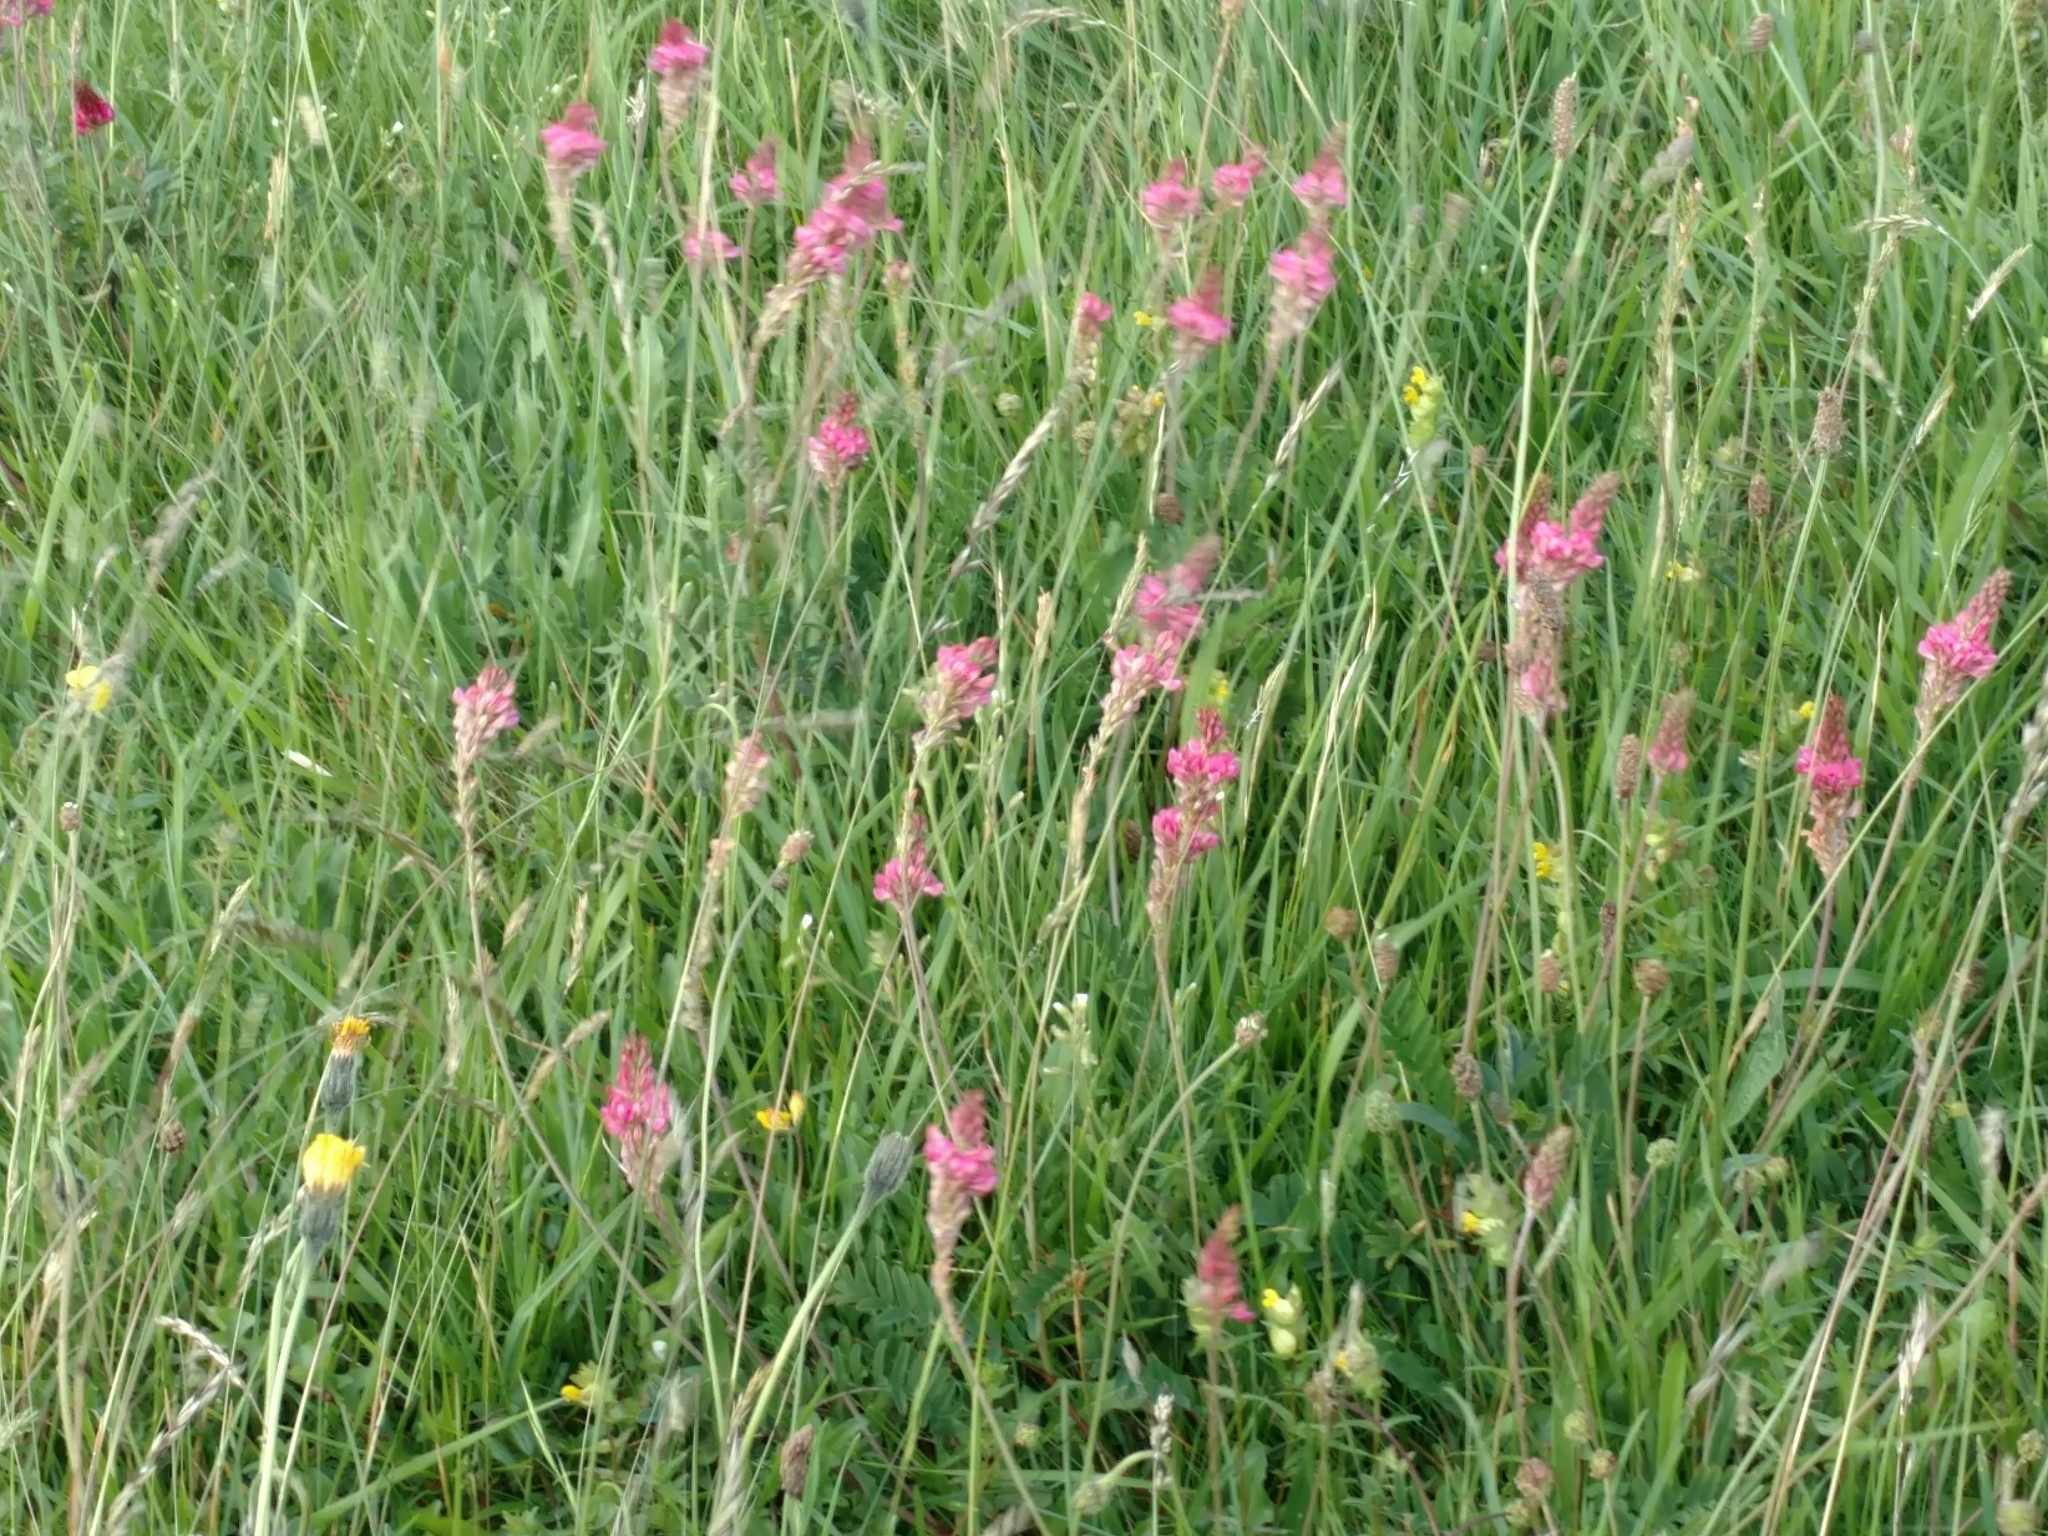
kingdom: Plantae
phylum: Tracheophyta
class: Magnoliopsida
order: Fabales
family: Fabaceae
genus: Onobrychis
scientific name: Onobrychis viciifolia
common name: Sainfoin
